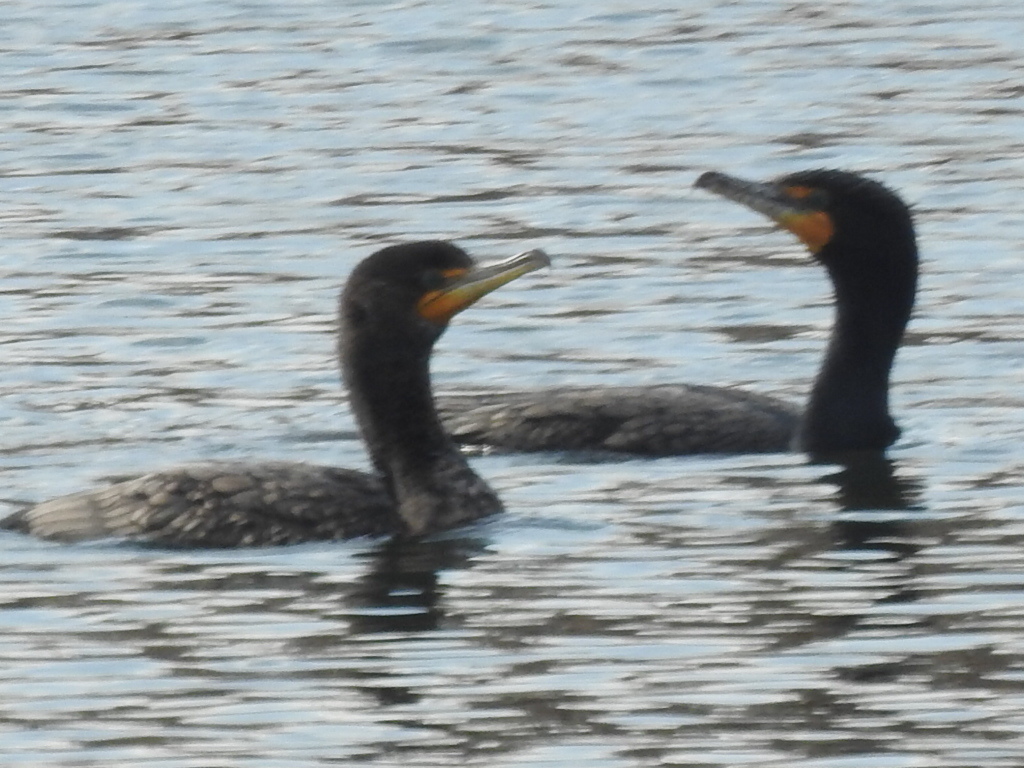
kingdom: Animalia
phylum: Chordata
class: Aves
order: Suliformes
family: Phalacrocoracidae
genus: Phalacrocorax
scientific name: Phalacrocorax auritus
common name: Double-crested cormorant
